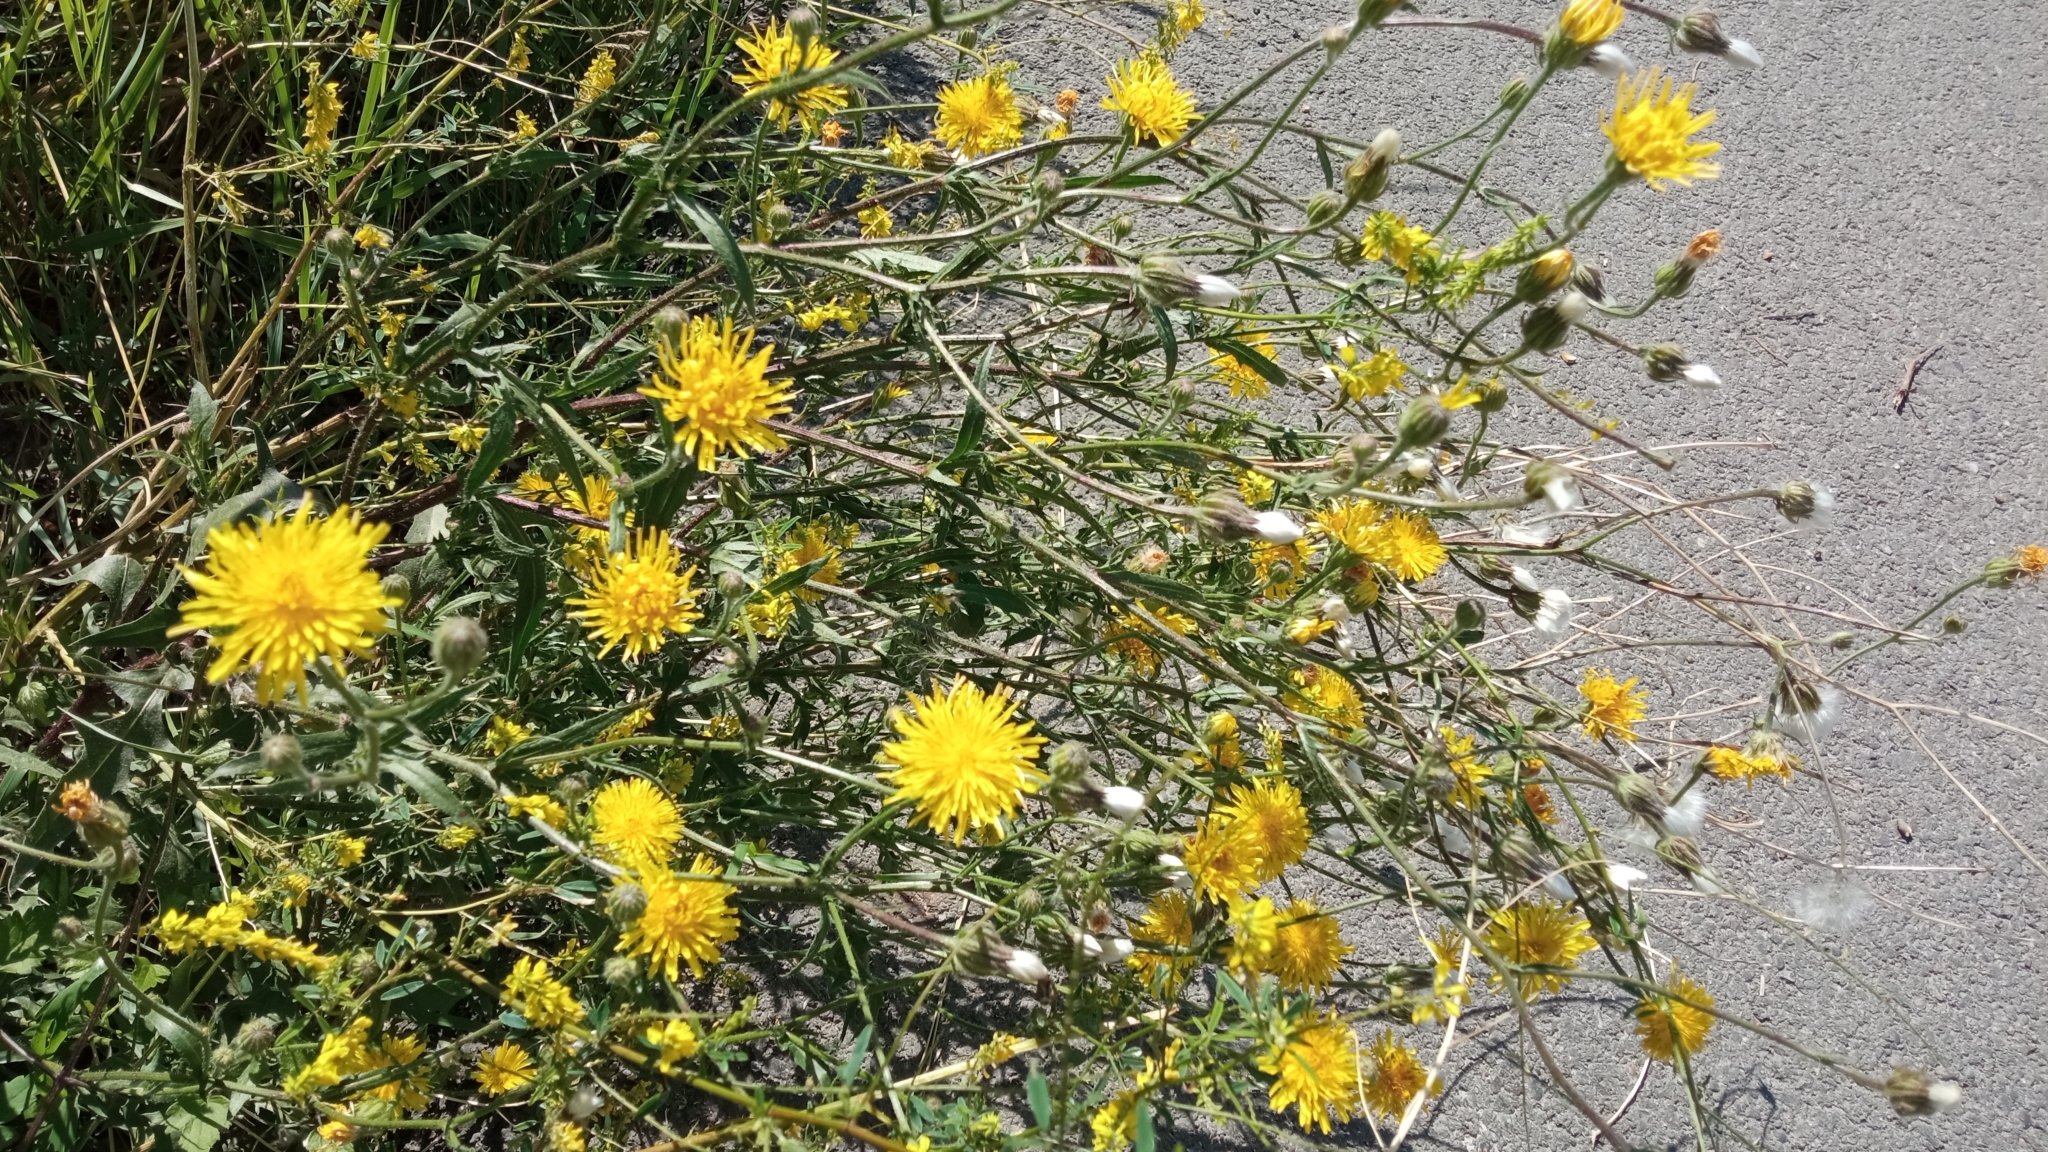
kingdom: Plantae
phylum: Tracheophyta
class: Magnoliopsida
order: Asterales
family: Asteraceae
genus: Crepis
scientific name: Crepis foetida
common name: Stinking hawk's-beard
